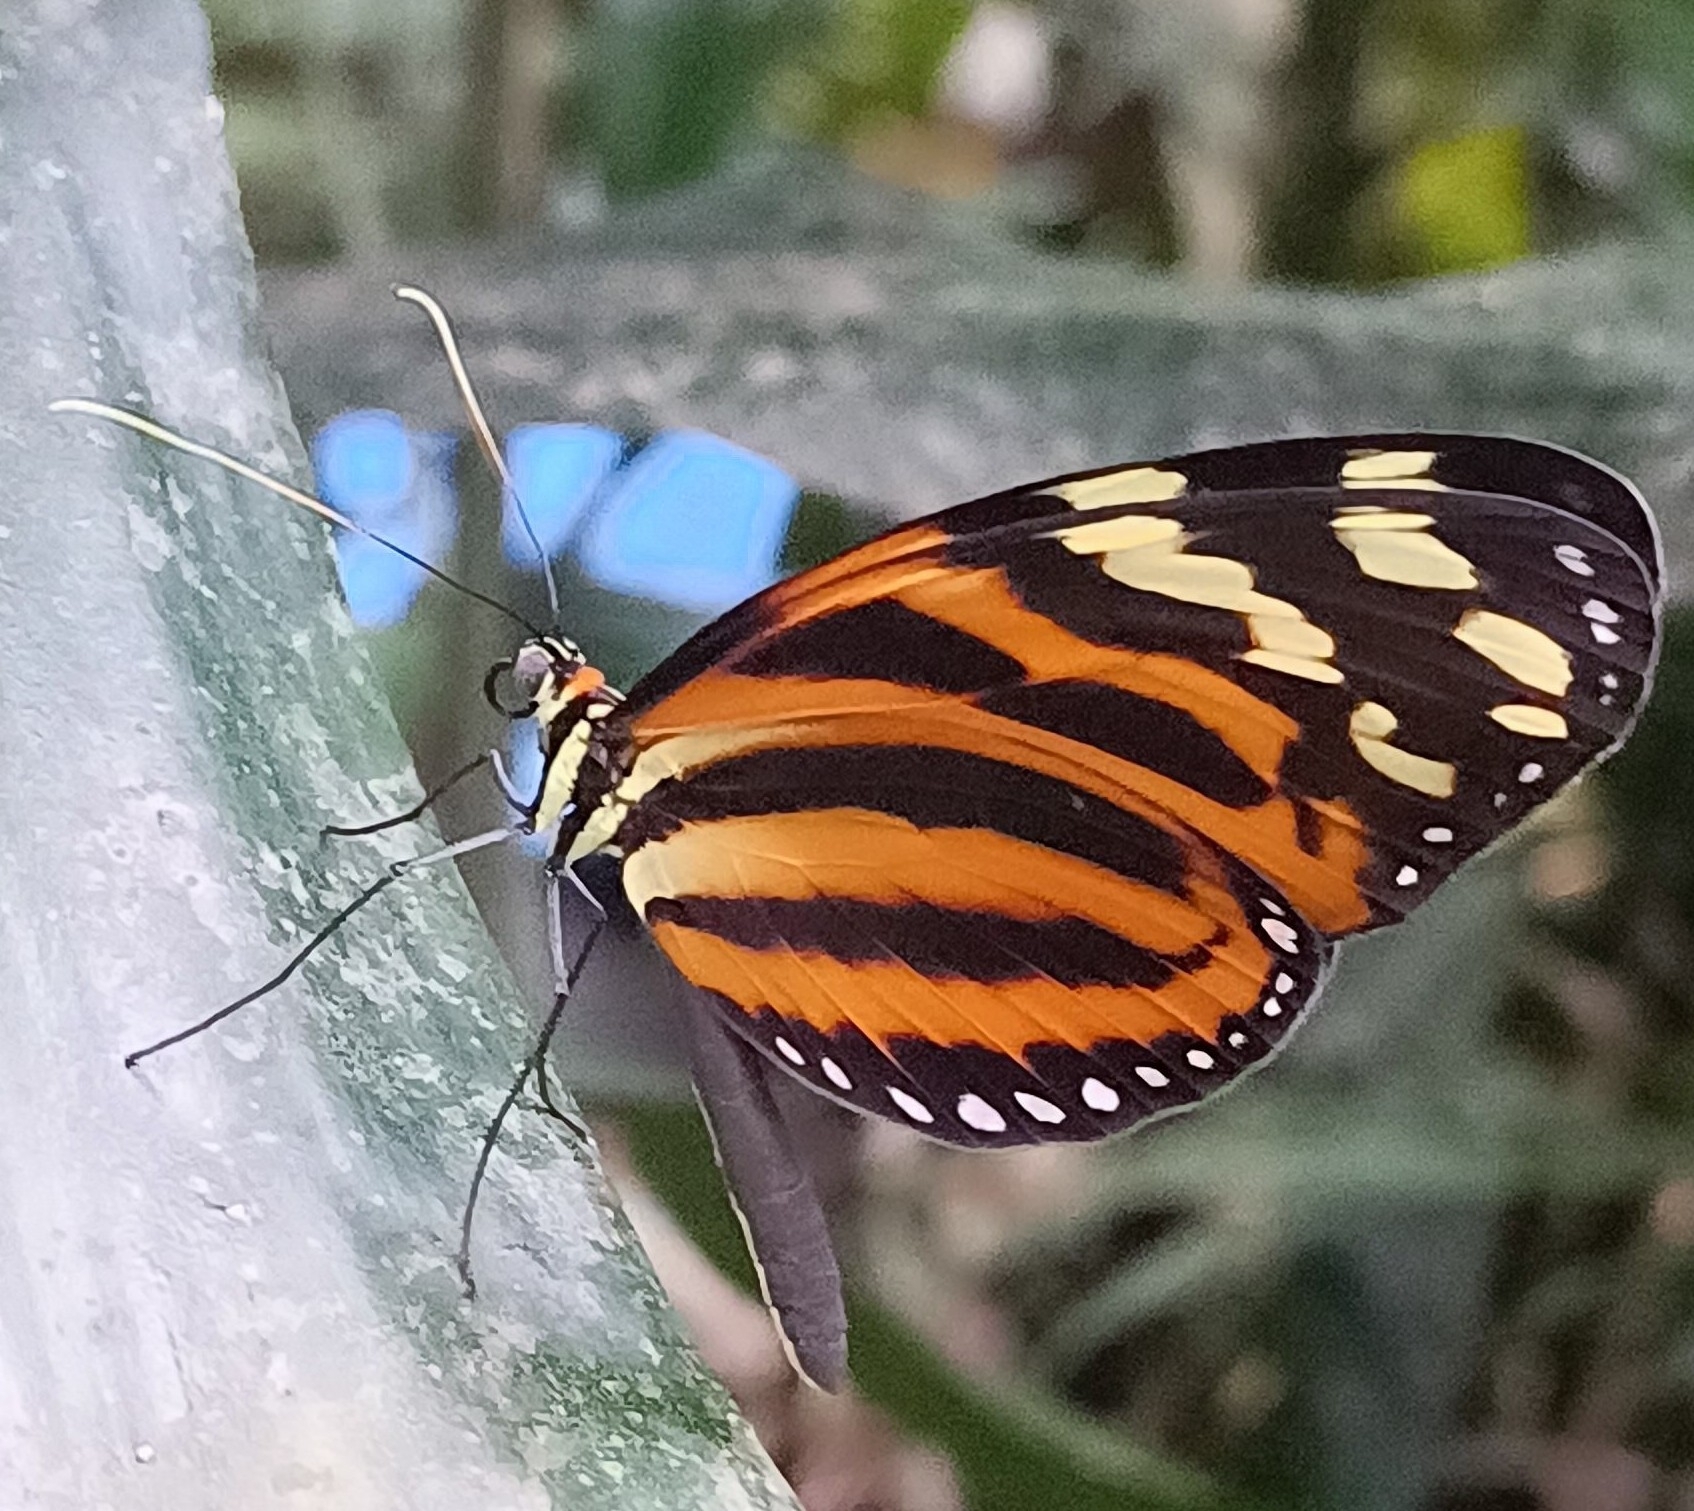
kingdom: Animalia
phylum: Arthropoda
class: Insecta
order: Lepidoptera
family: Nymphalidae
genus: Melinaea
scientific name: Melinaea lilis
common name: Mimic tigerwing
